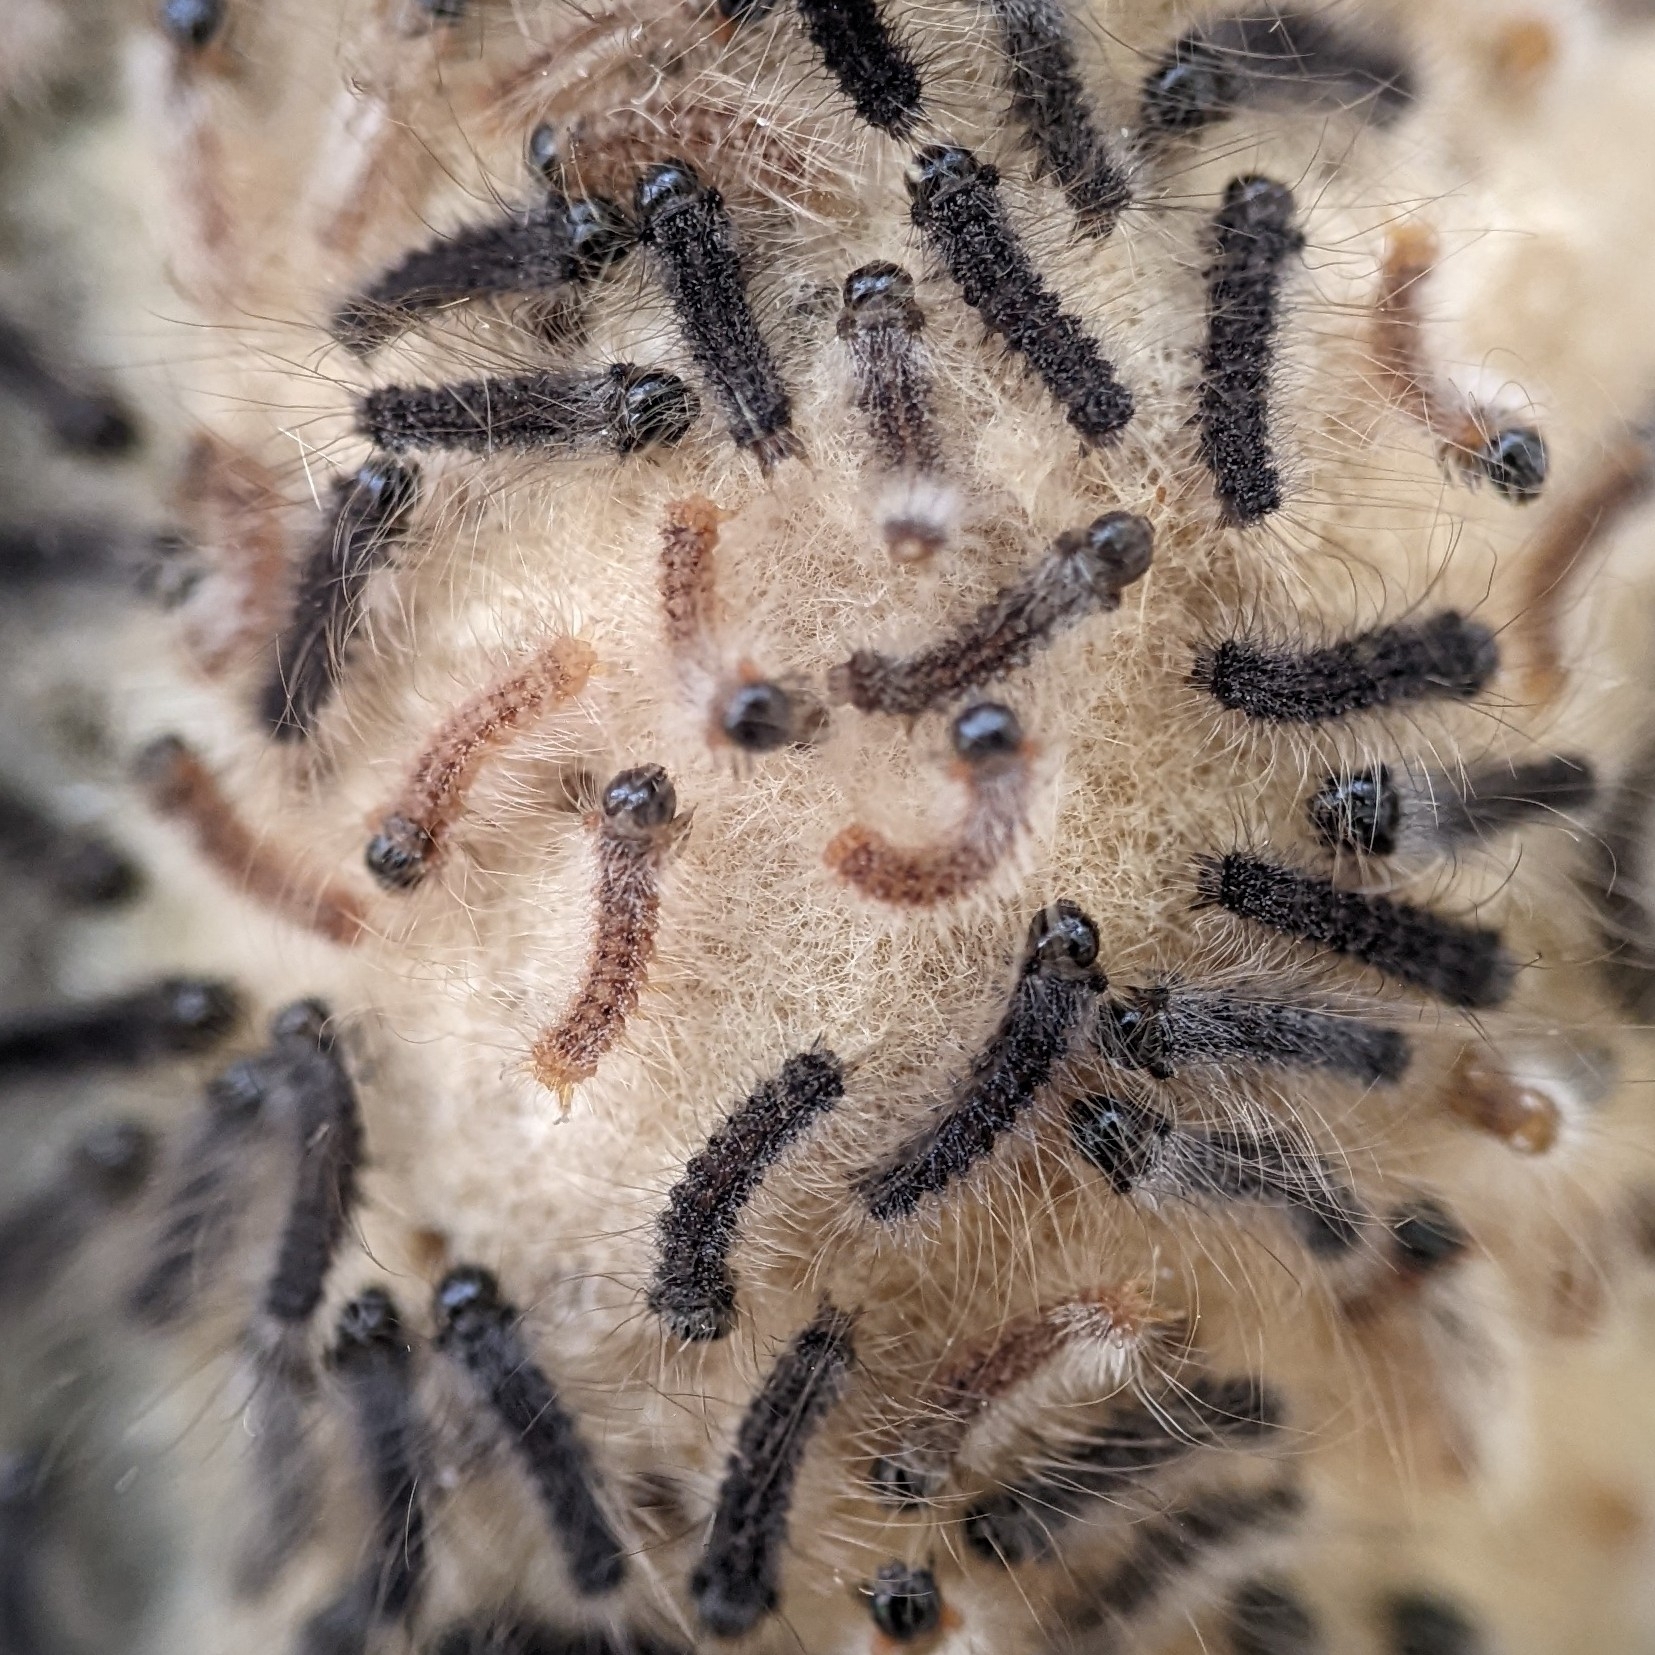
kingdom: Animalia
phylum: Arthropoda
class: Insecta
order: Lepidoptera
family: Erebidae
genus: Lymantria
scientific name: Lymantria dispar
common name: Gypsy moth
